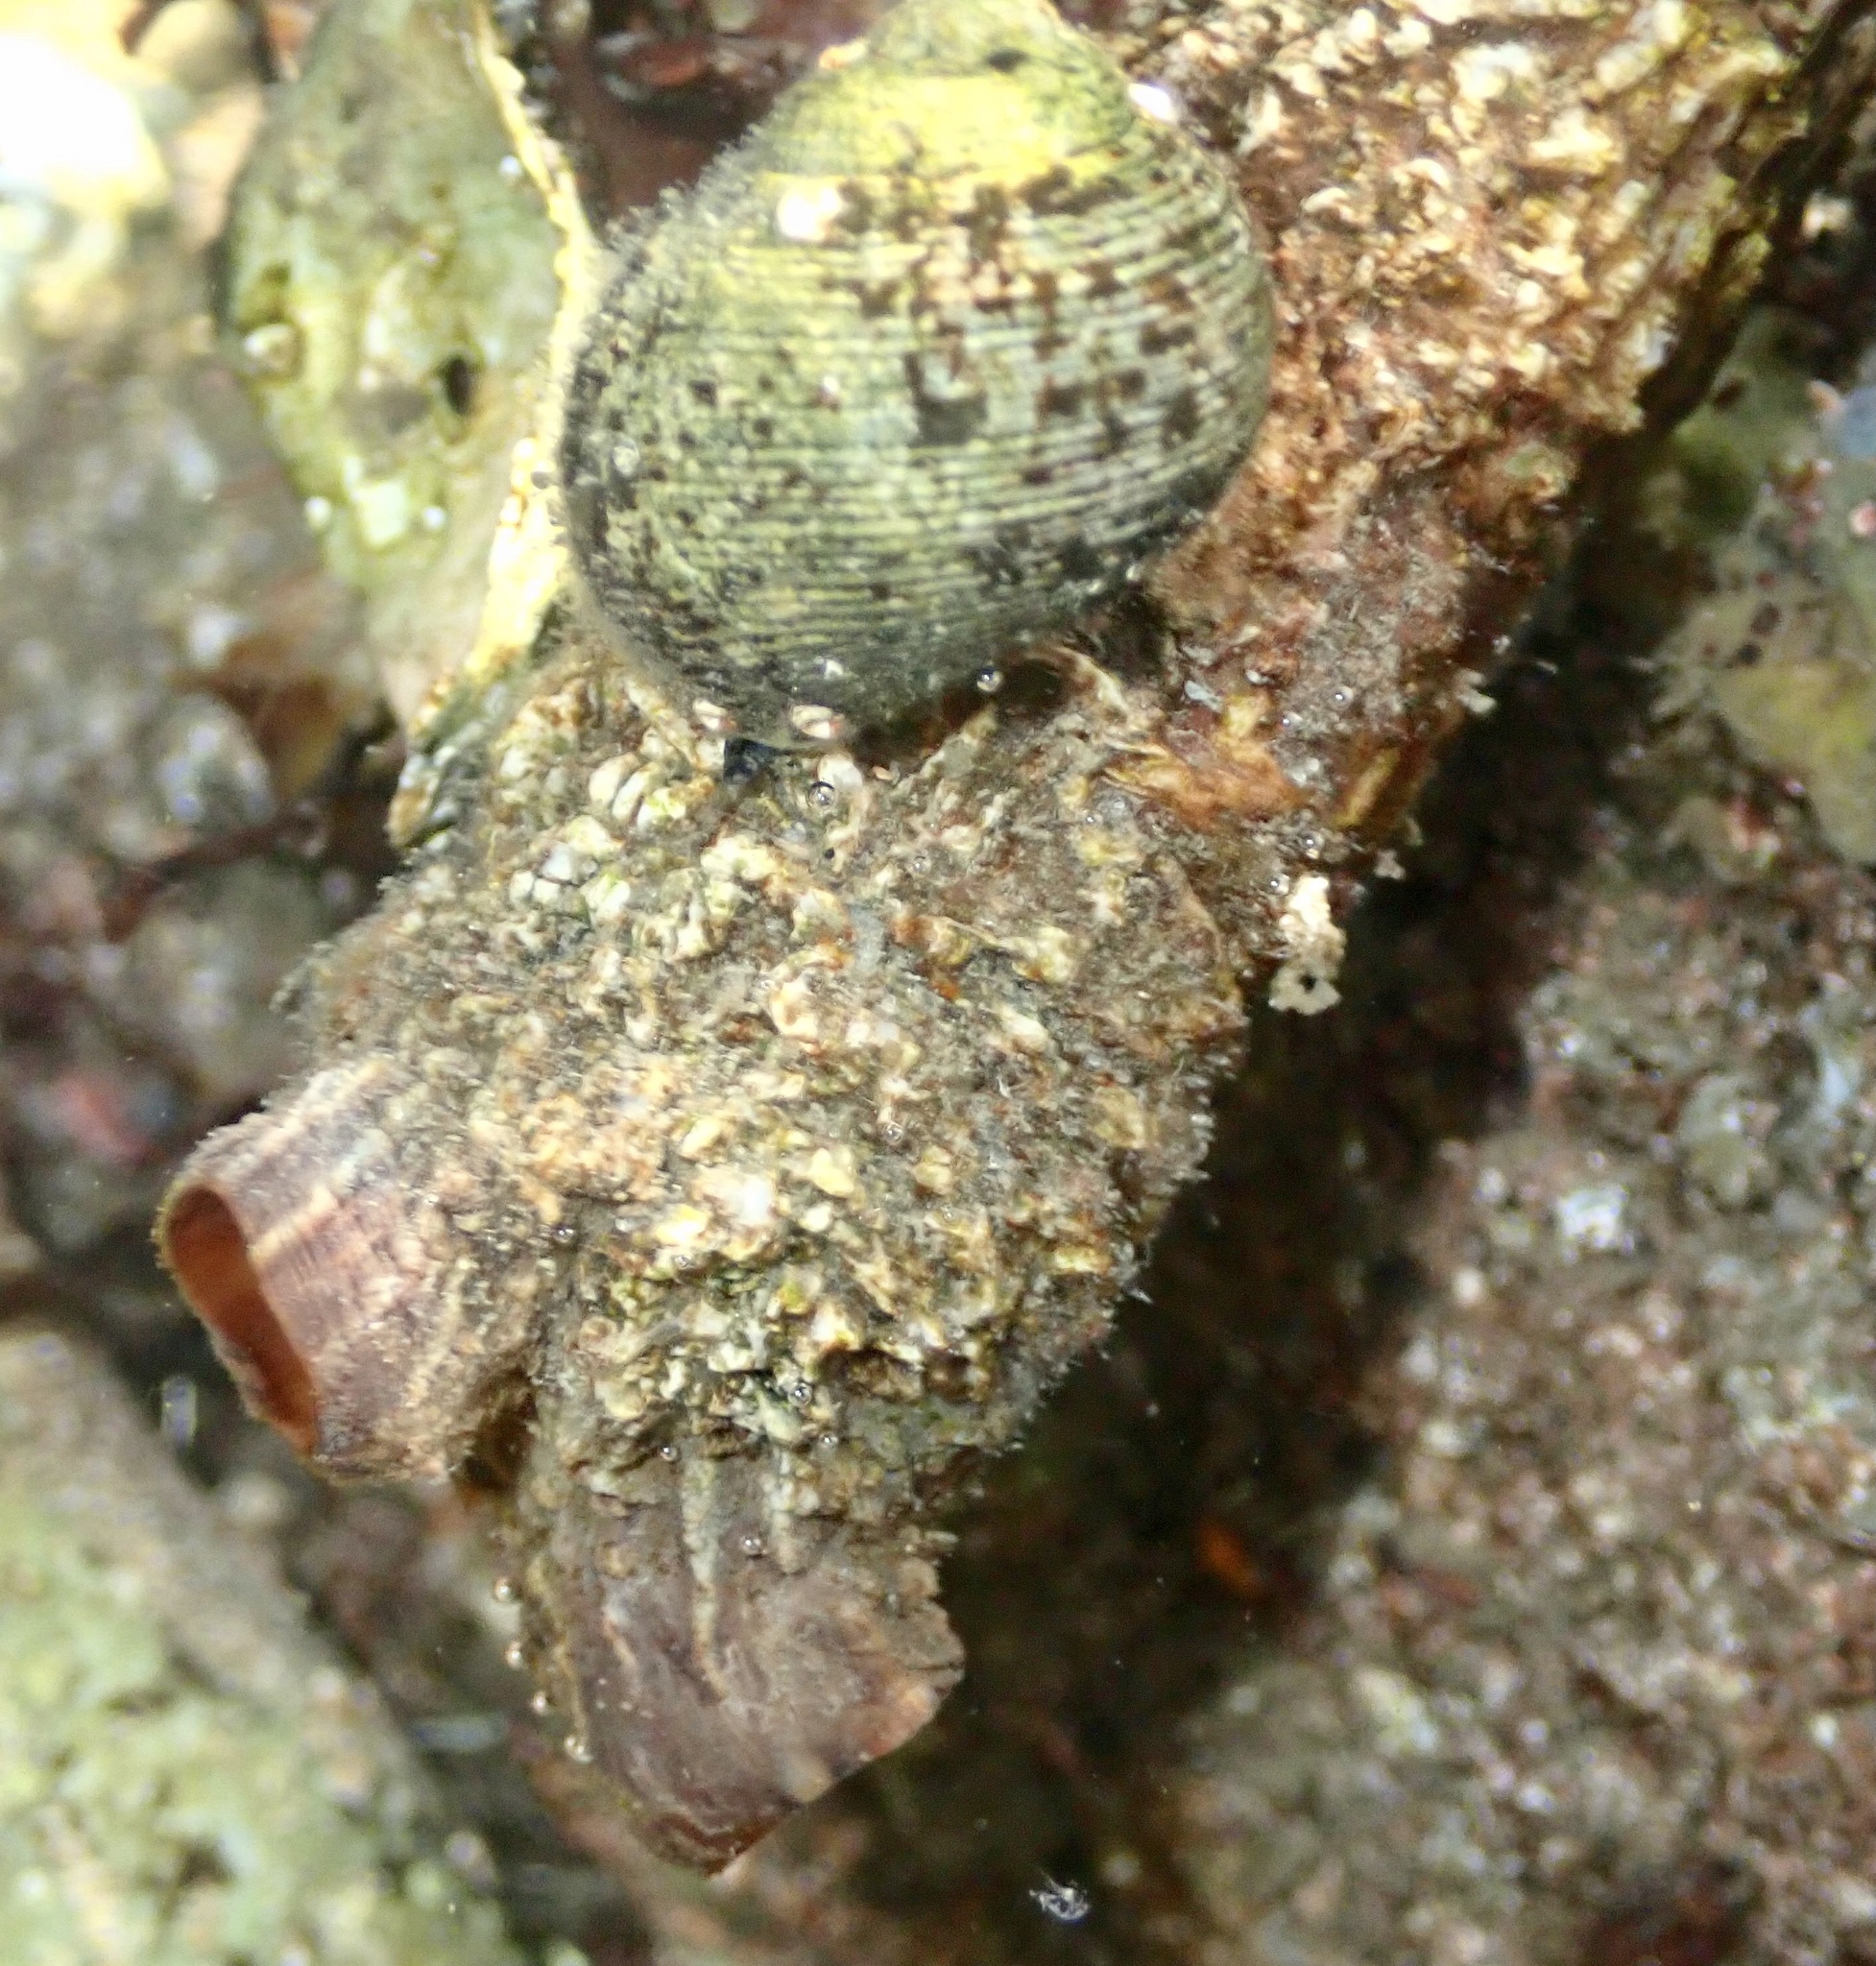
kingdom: Animalia
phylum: Chordata
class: Ascidiacea
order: Stolidobranchia
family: Styelidae
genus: Styela
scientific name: Styela clava
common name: Leathery sea squirt
